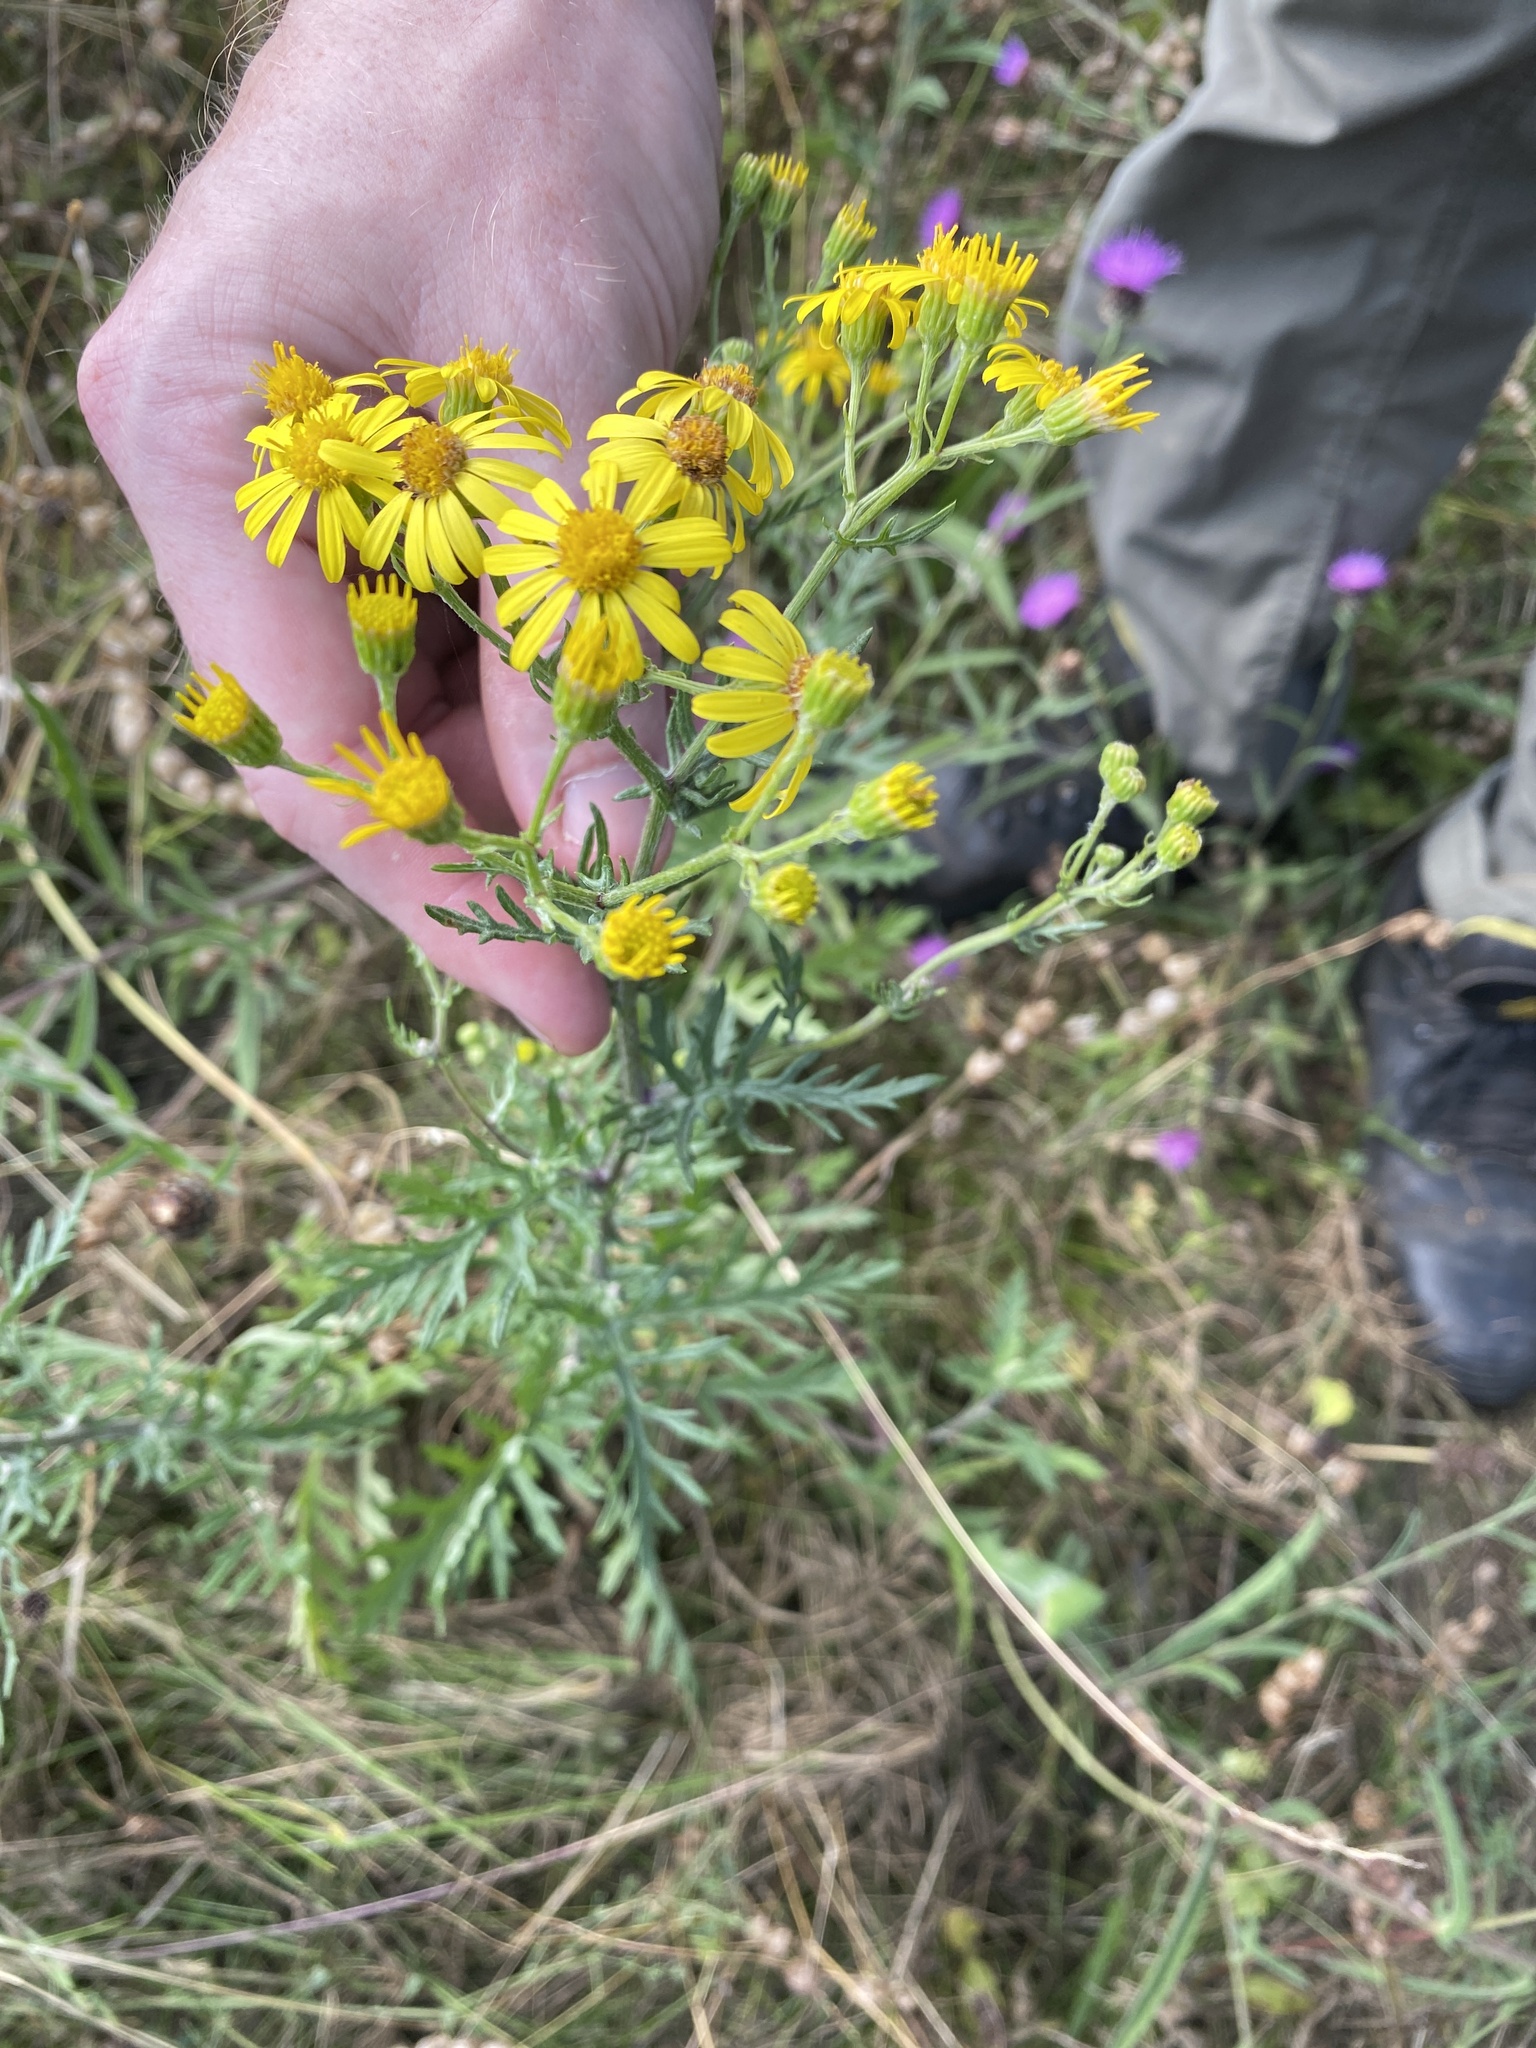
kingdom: Plantae
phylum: Tracheophyta
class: Magnoliopsida
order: Asterales
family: Asteraceae
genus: Jacobaea
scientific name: Jacobaea erucifolia
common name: Hoary ragwort
